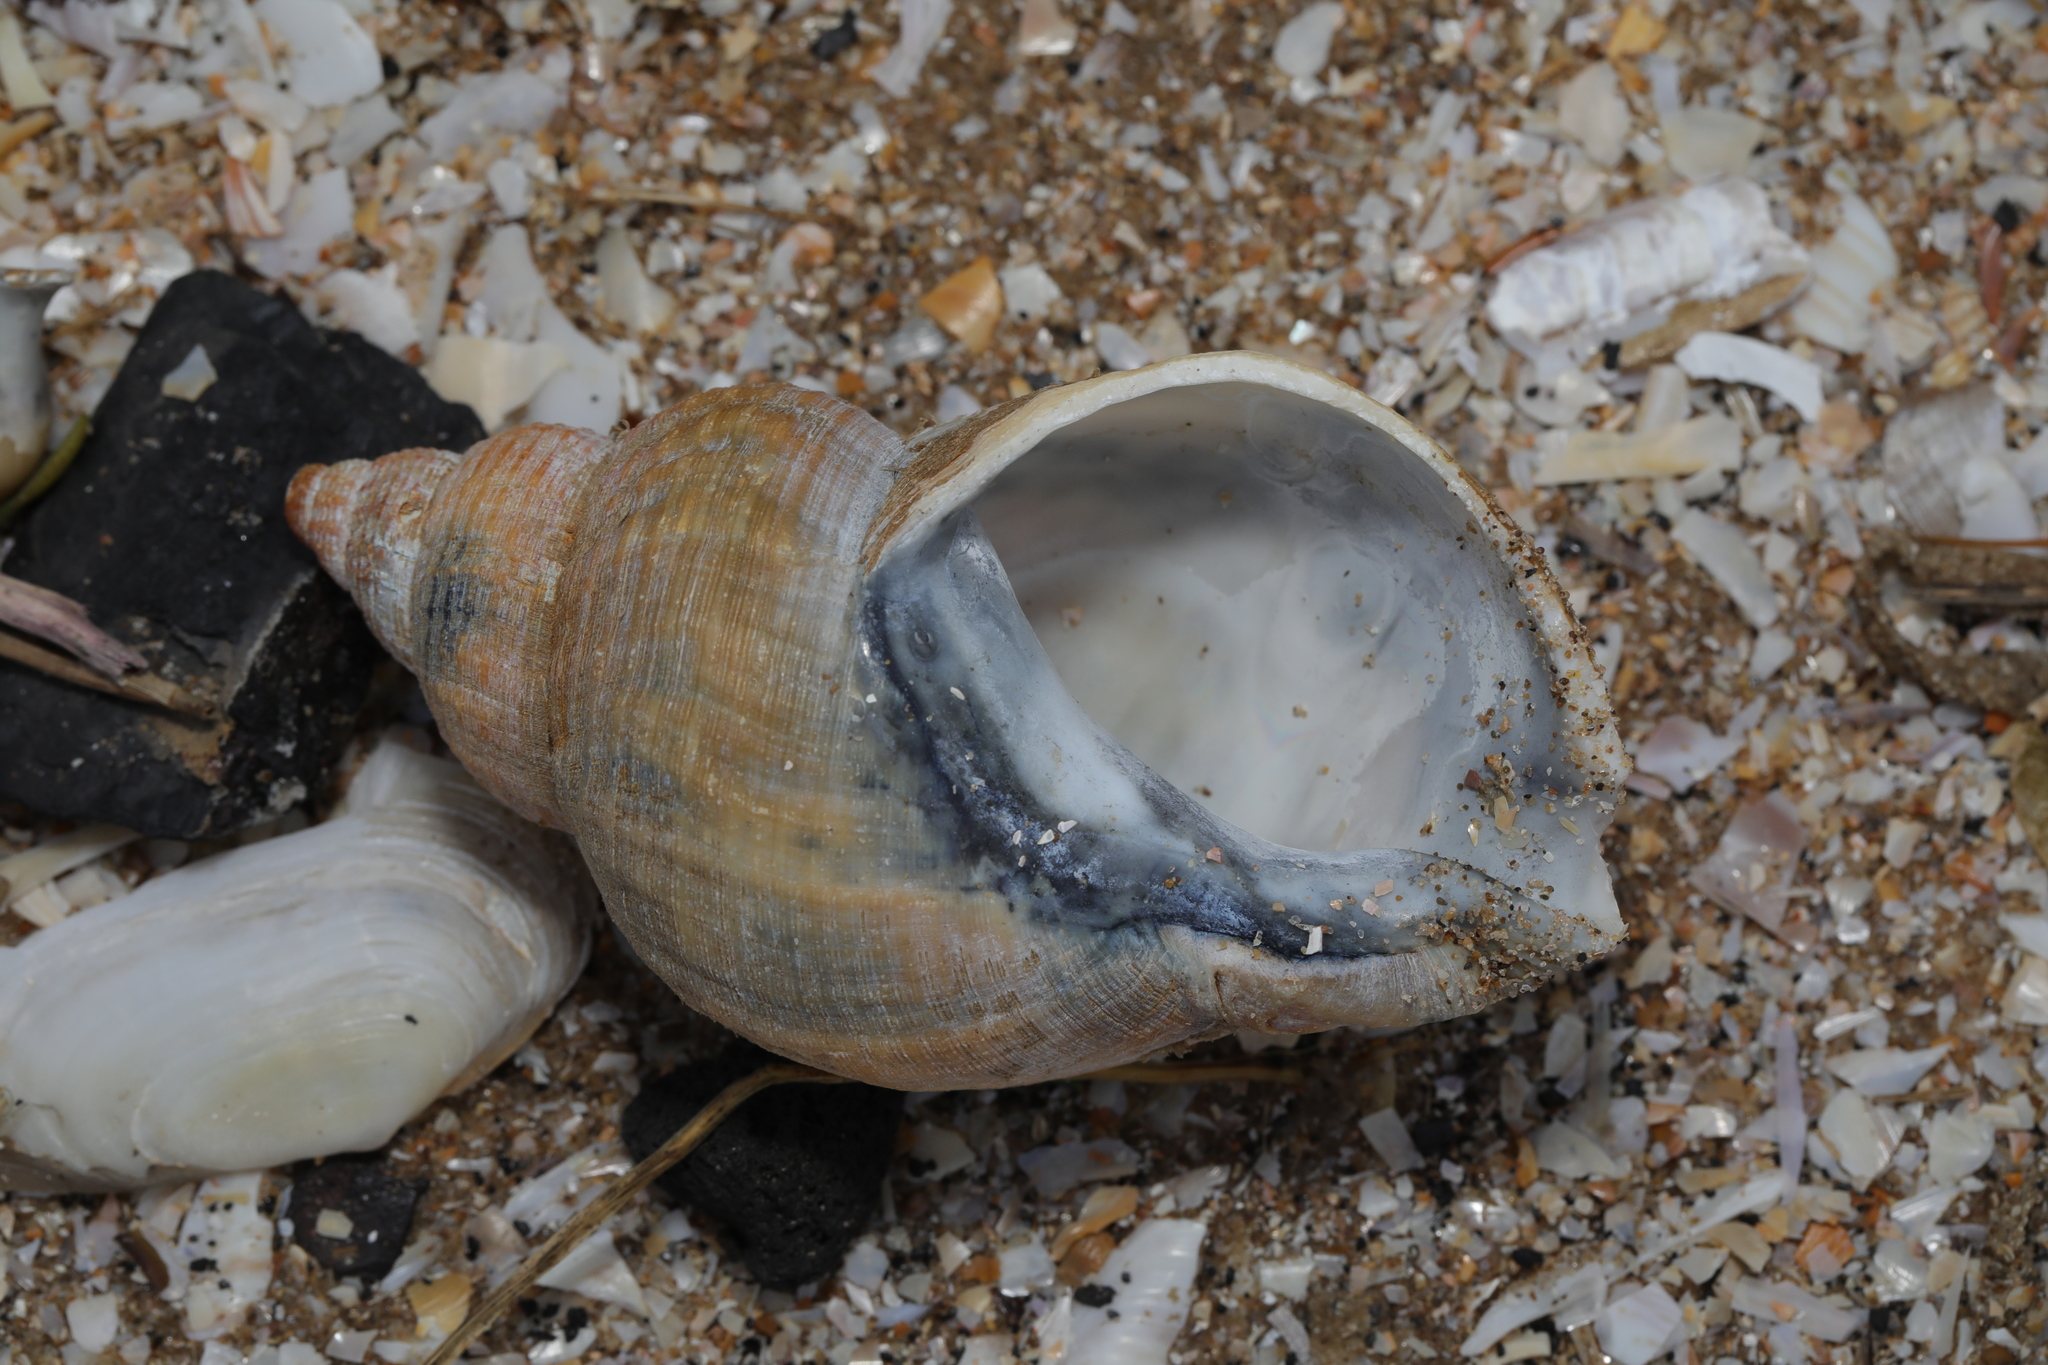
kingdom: Animalia
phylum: Mollusca
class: Gastropoda
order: Neogastropoda
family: Buccinidae
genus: Buccinum
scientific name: Buccinum undatum
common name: Common whelk
